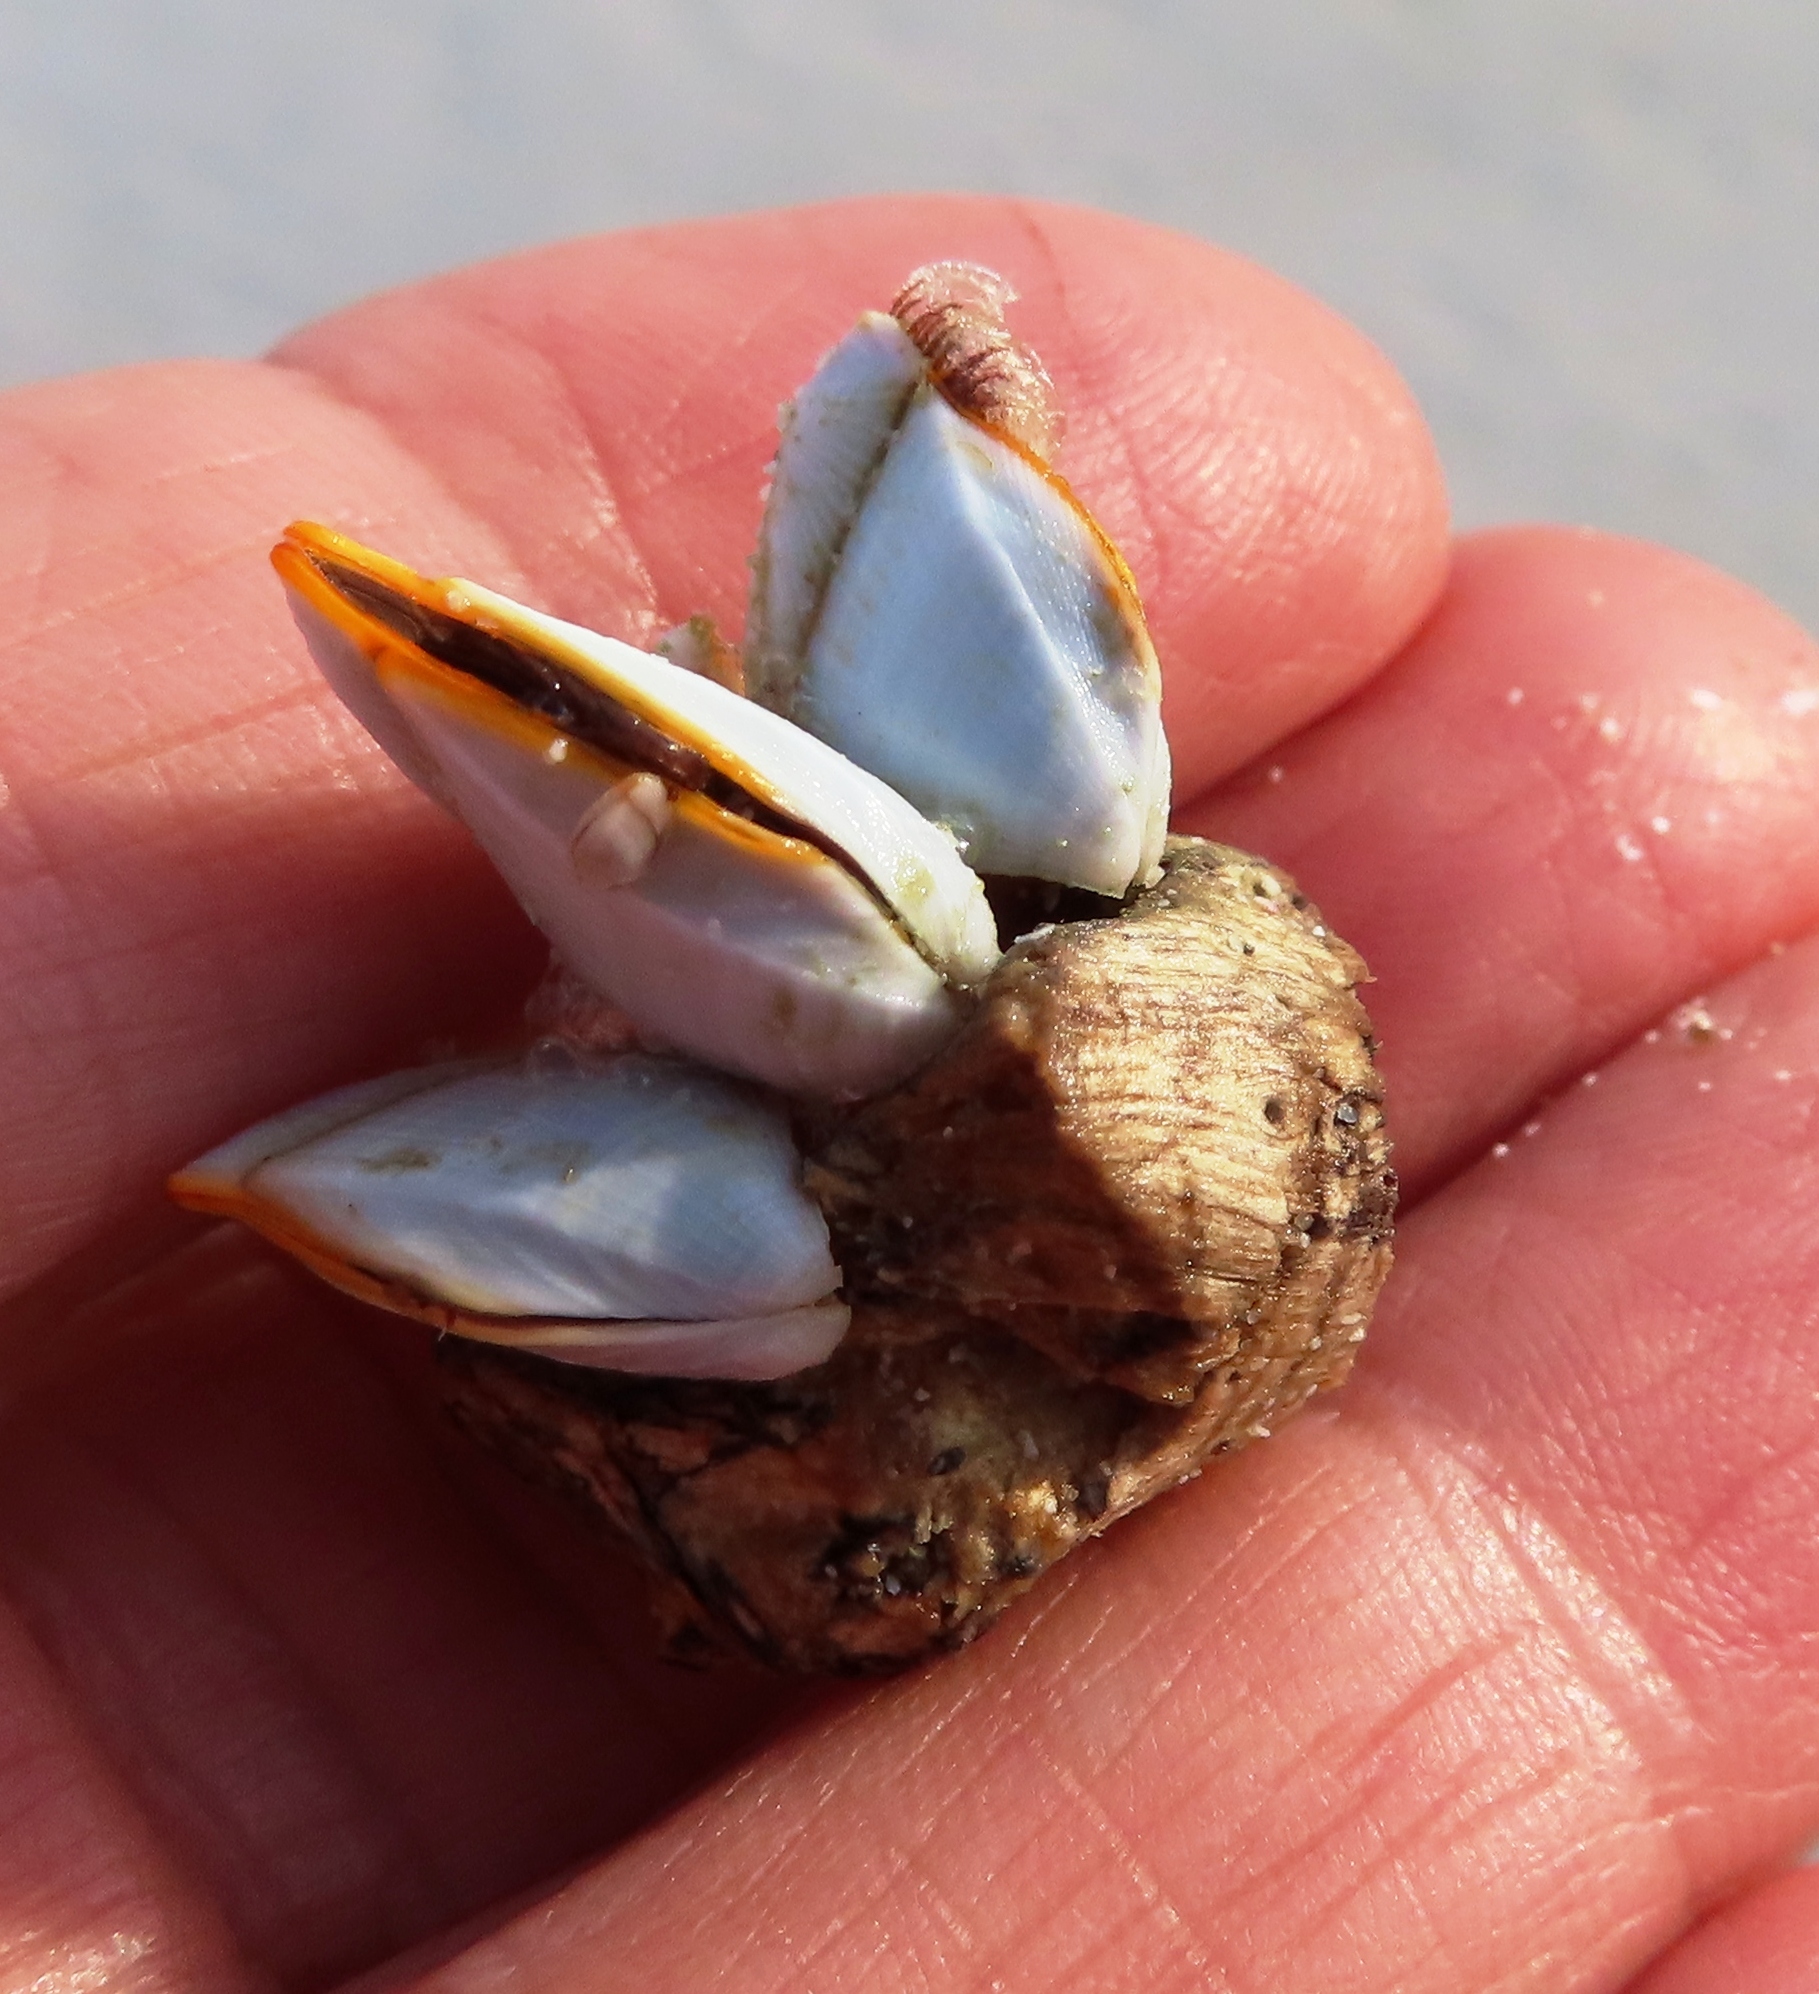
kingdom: Animalia
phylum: Arthropoda
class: Maxillopoda
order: Pedunculata
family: Lepadidae
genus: Lepas
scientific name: Lepas anserifera
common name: Goose barnacle
